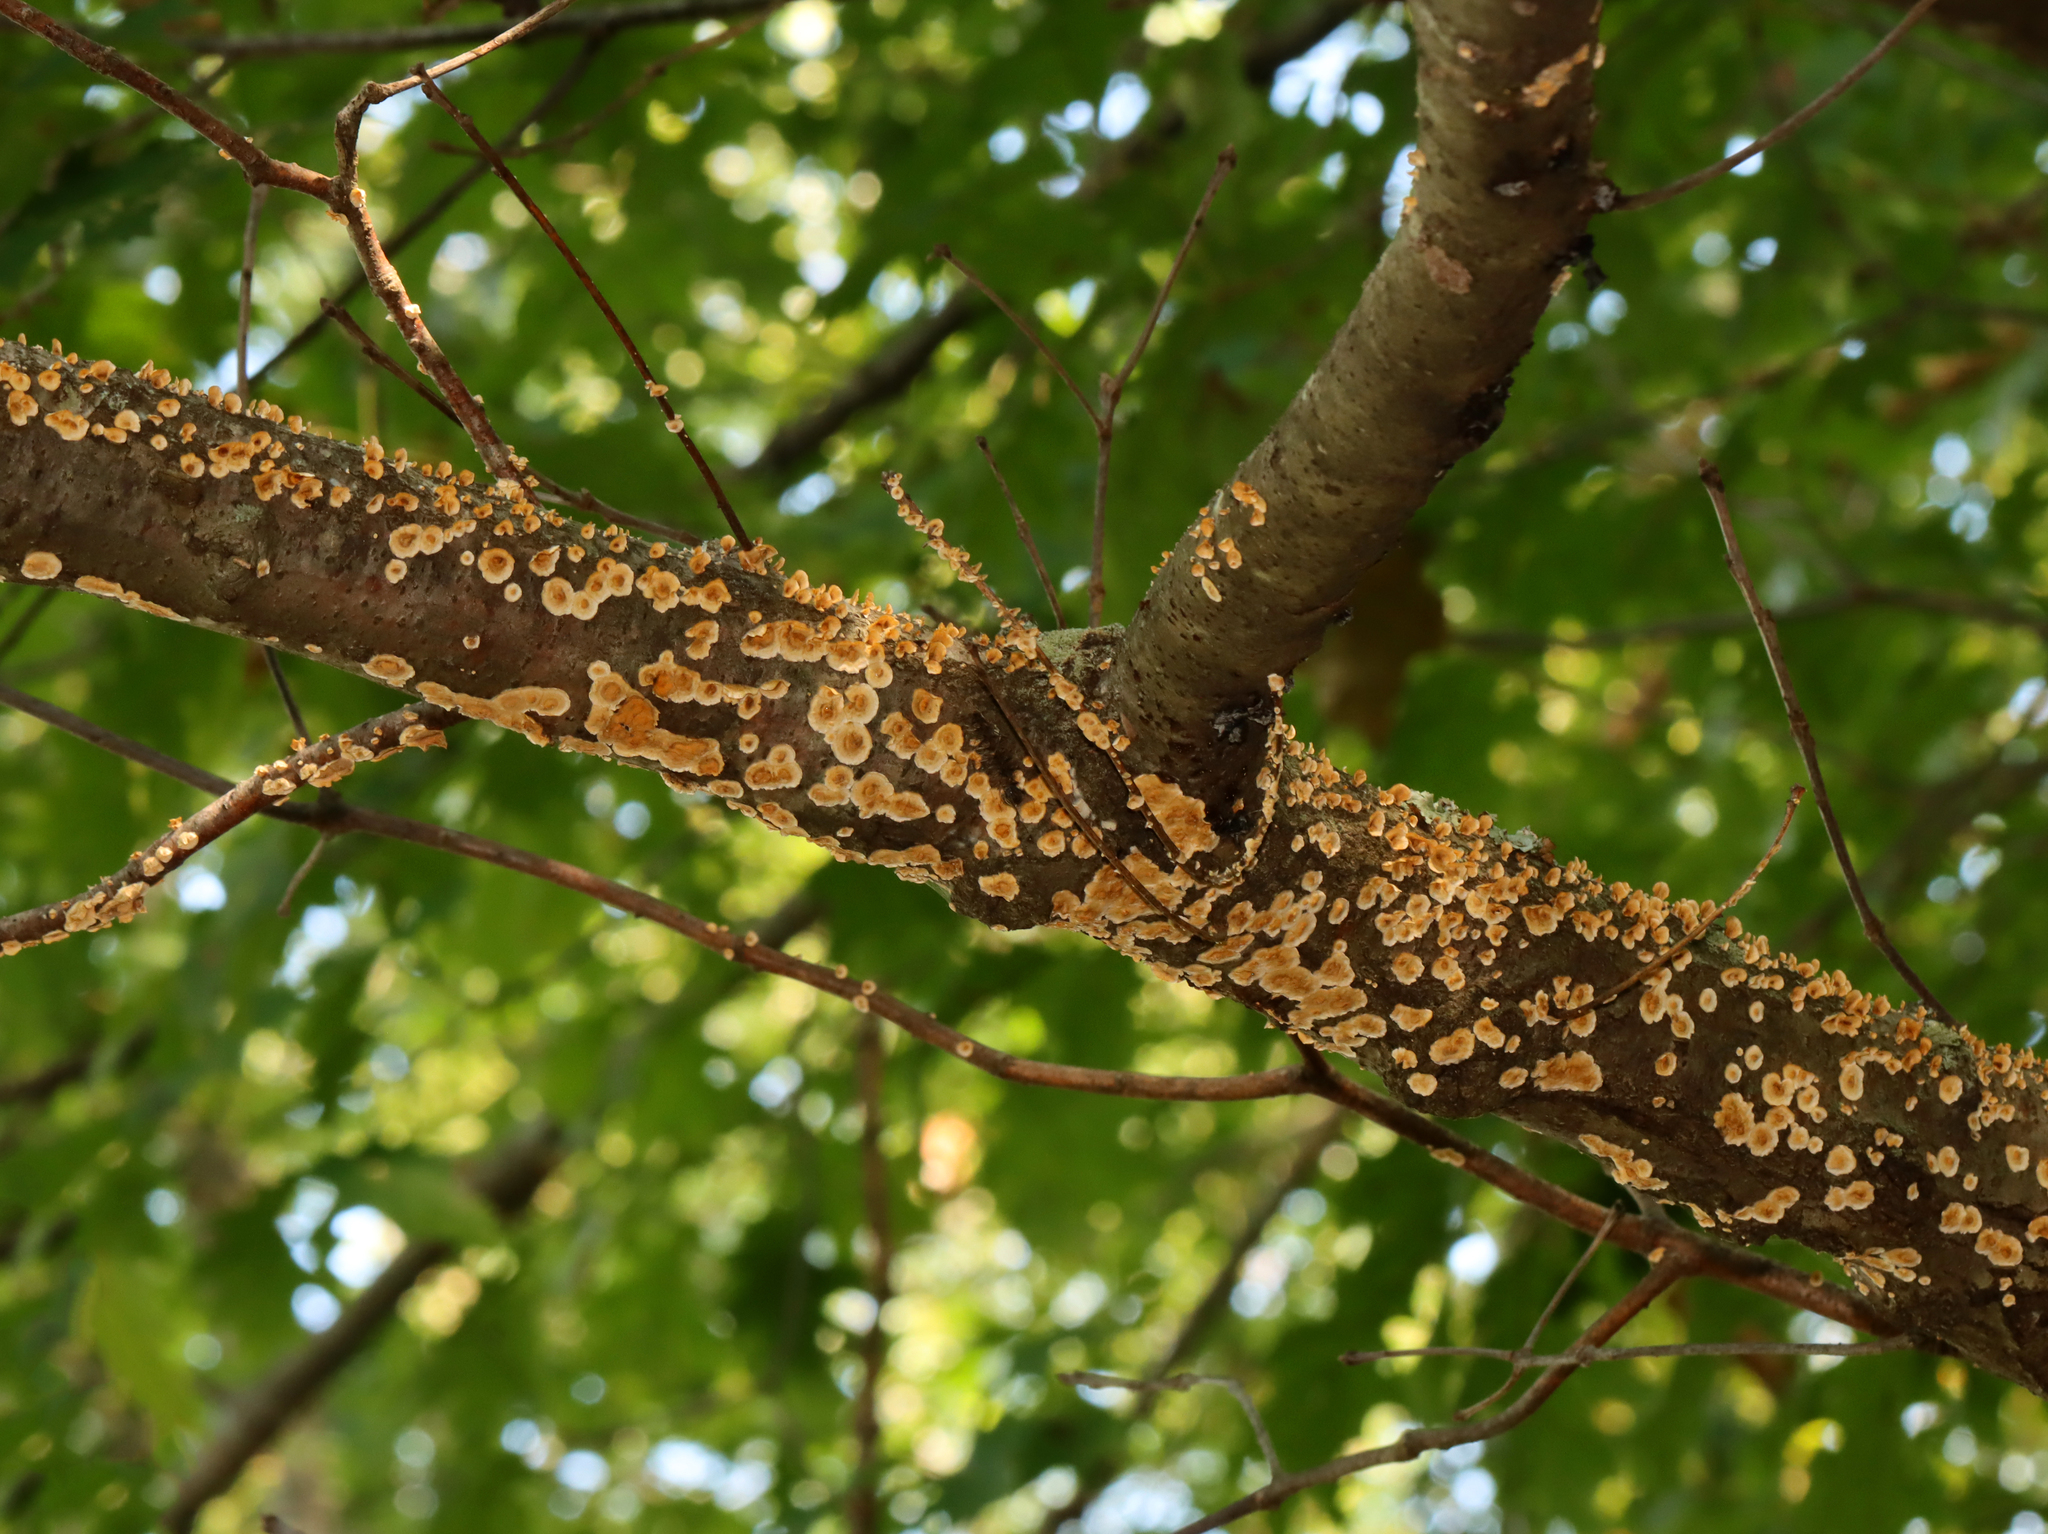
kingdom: Fungi
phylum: Basidiomycota
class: Agaricomycetes
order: Russulales
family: Stereaceae
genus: Stereum
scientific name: Stereum complicatum
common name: Crowded parchment
